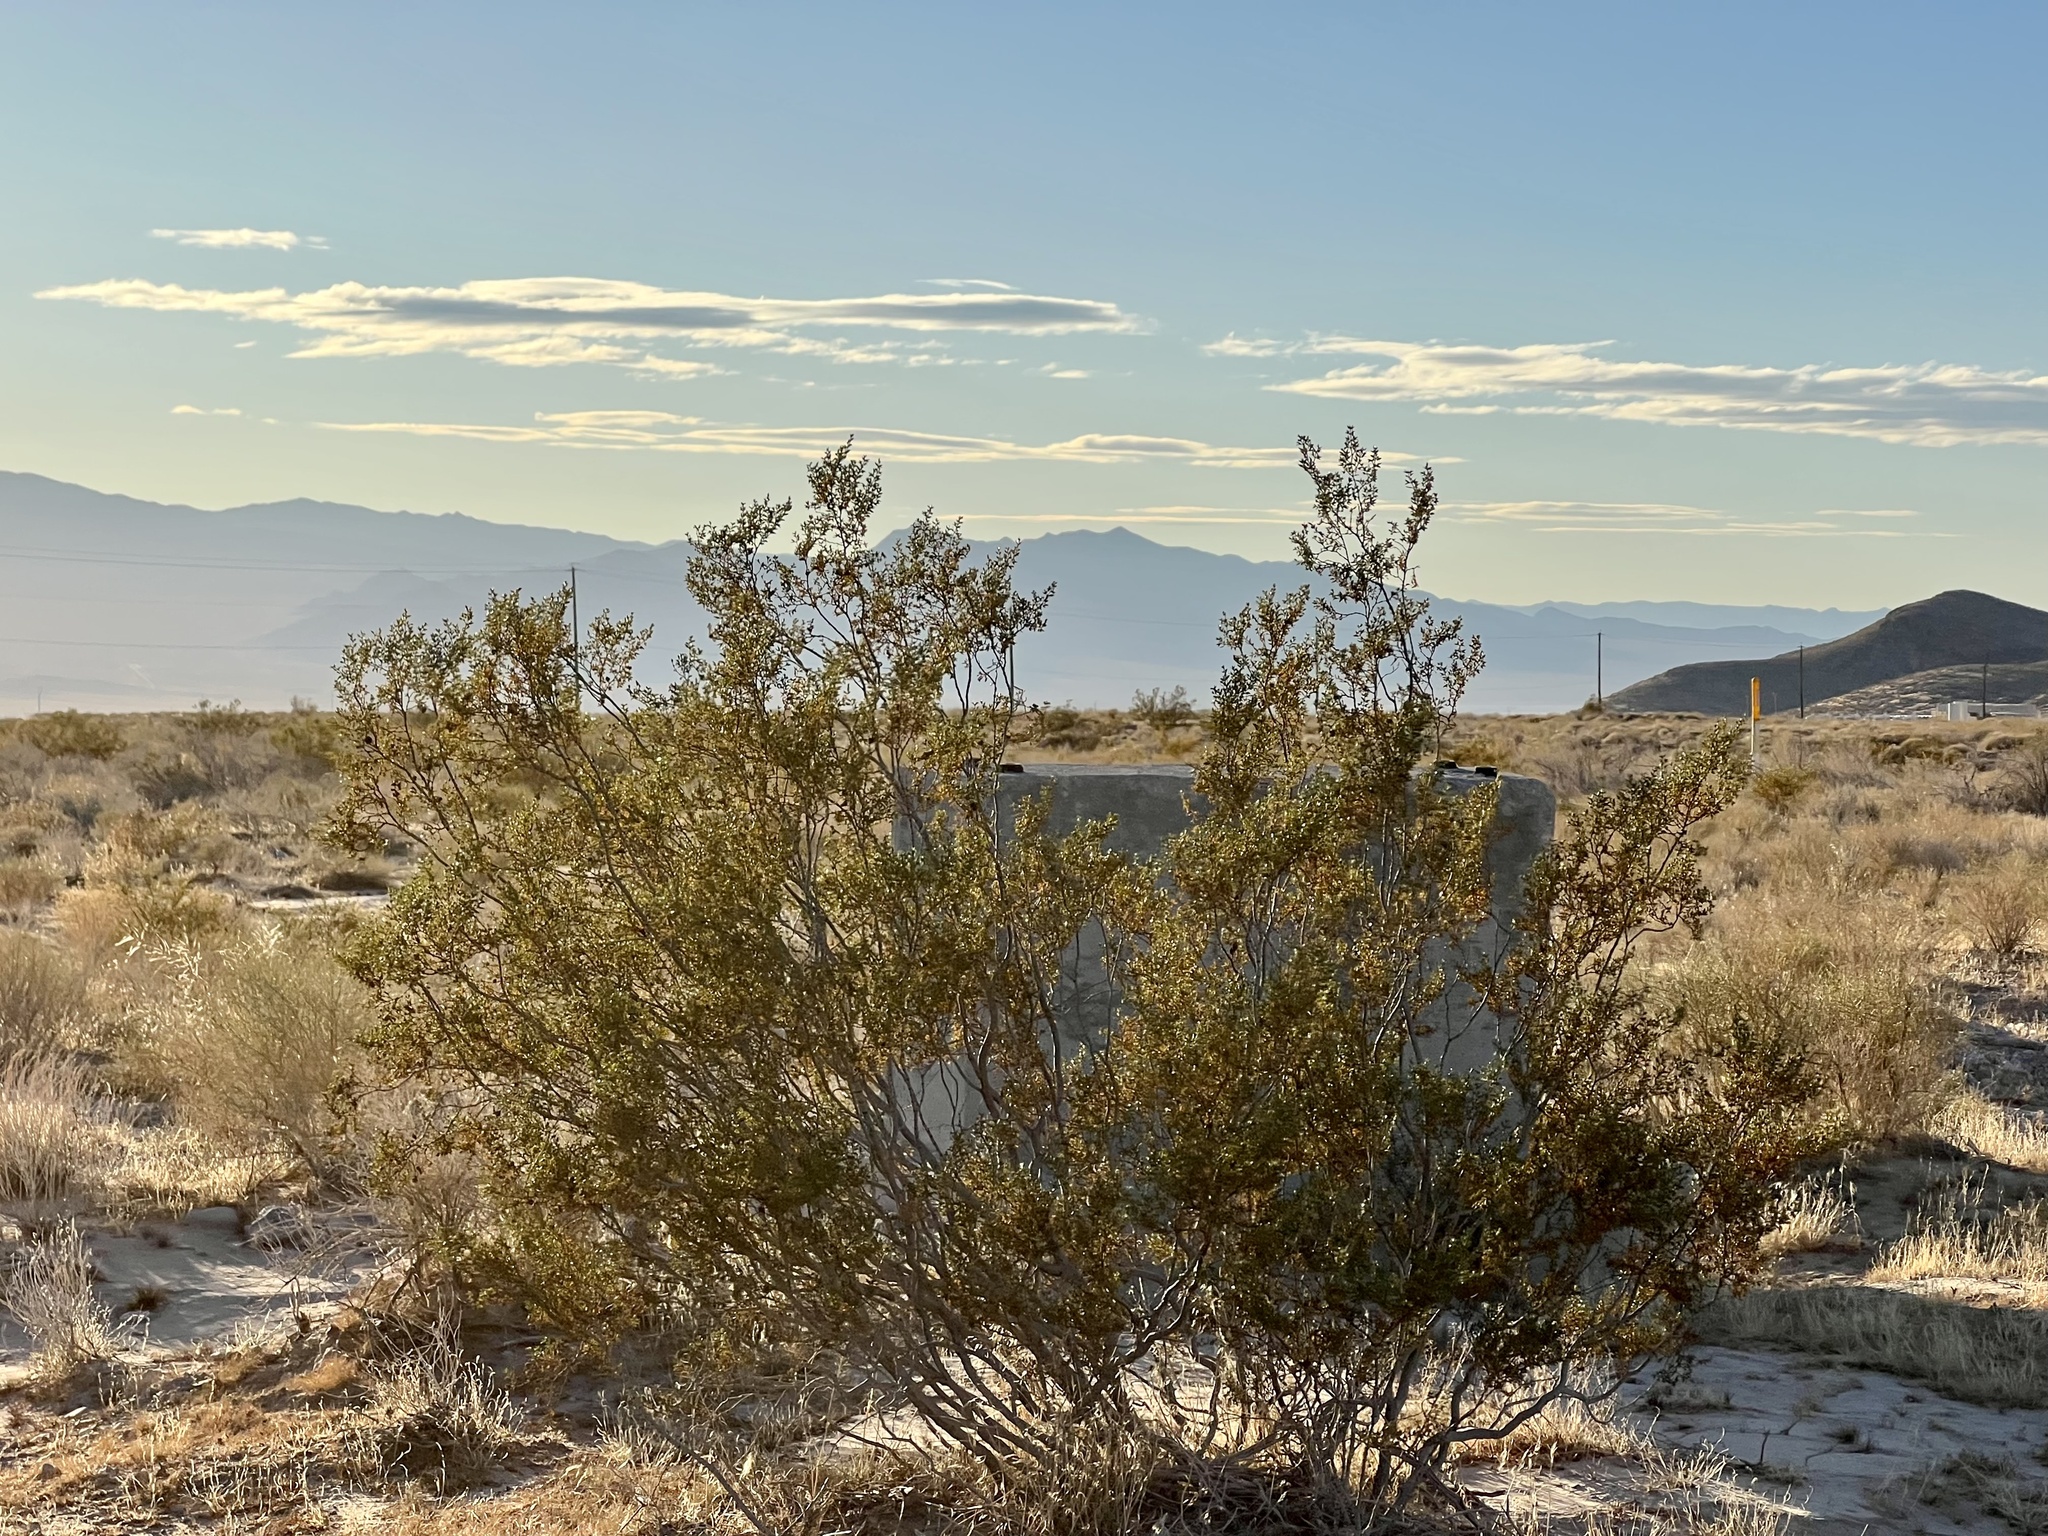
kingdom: Plantae
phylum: Tracheophyta
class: Magnoliopsida
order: Zygophyllales
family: Zygophyllaceae
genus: Larrea
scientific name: Larrea tridentata
